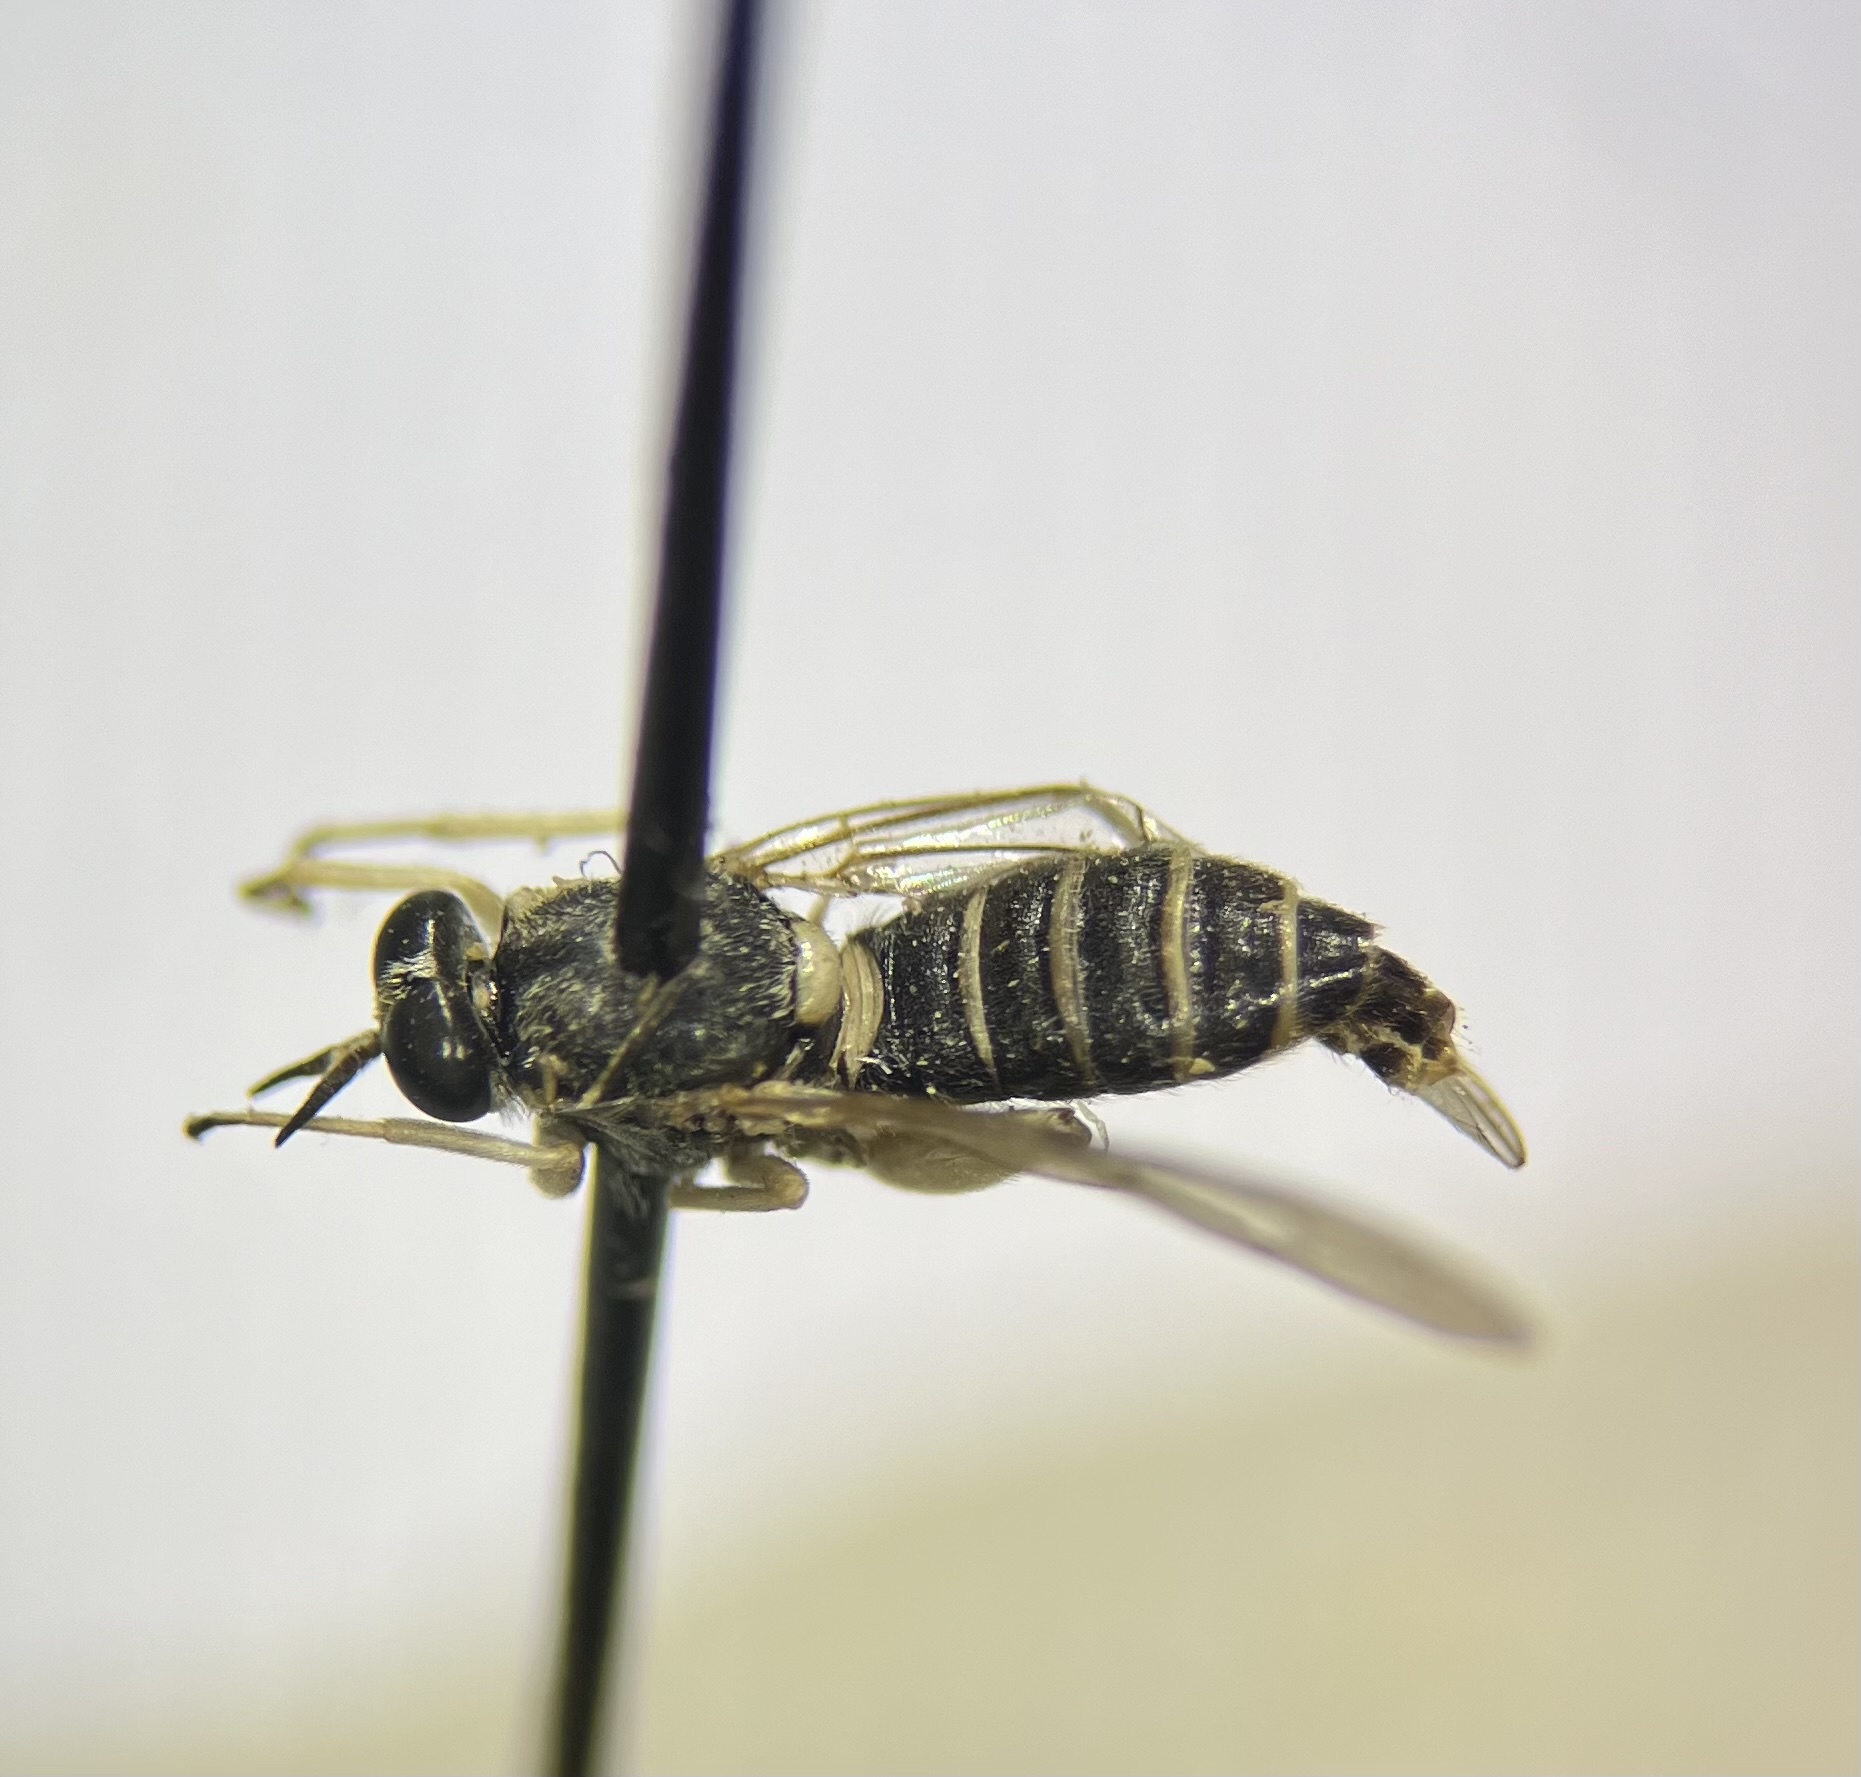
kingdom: Animalia
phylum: Arthropoda
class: Insecta
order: Diptera
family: Xylomyidae
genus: Solva
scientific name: Solva pallipes
